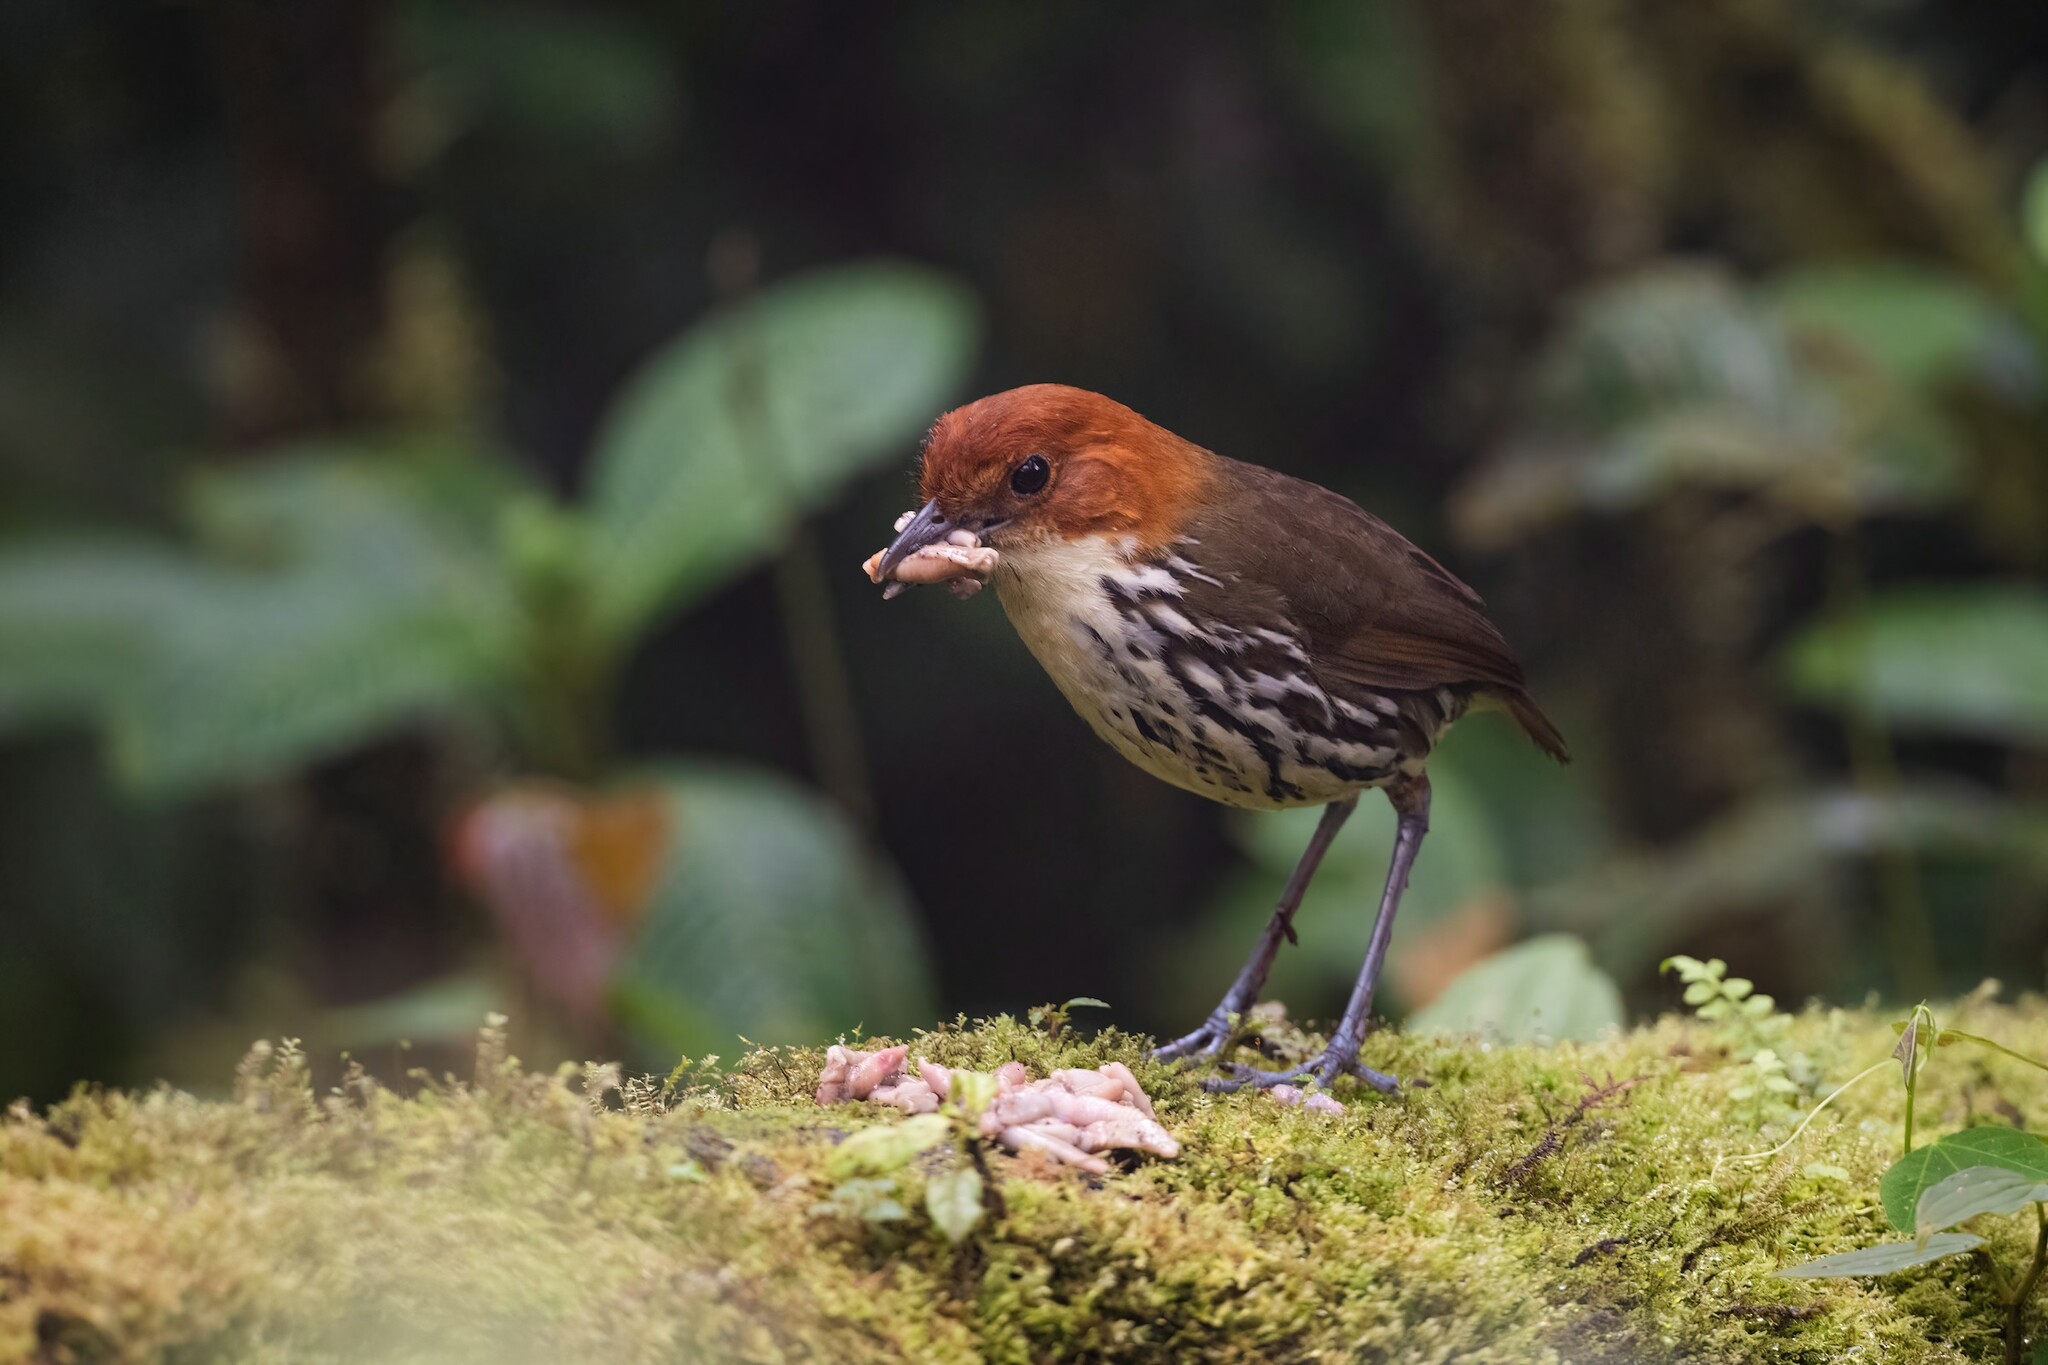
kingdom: Animalia
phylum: Chordata
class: Aves
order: Passeriformes
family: Grallariidae
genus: Grallaria
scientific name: Grallaria ruficapilla
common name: Chestnut-crowned antpitta
